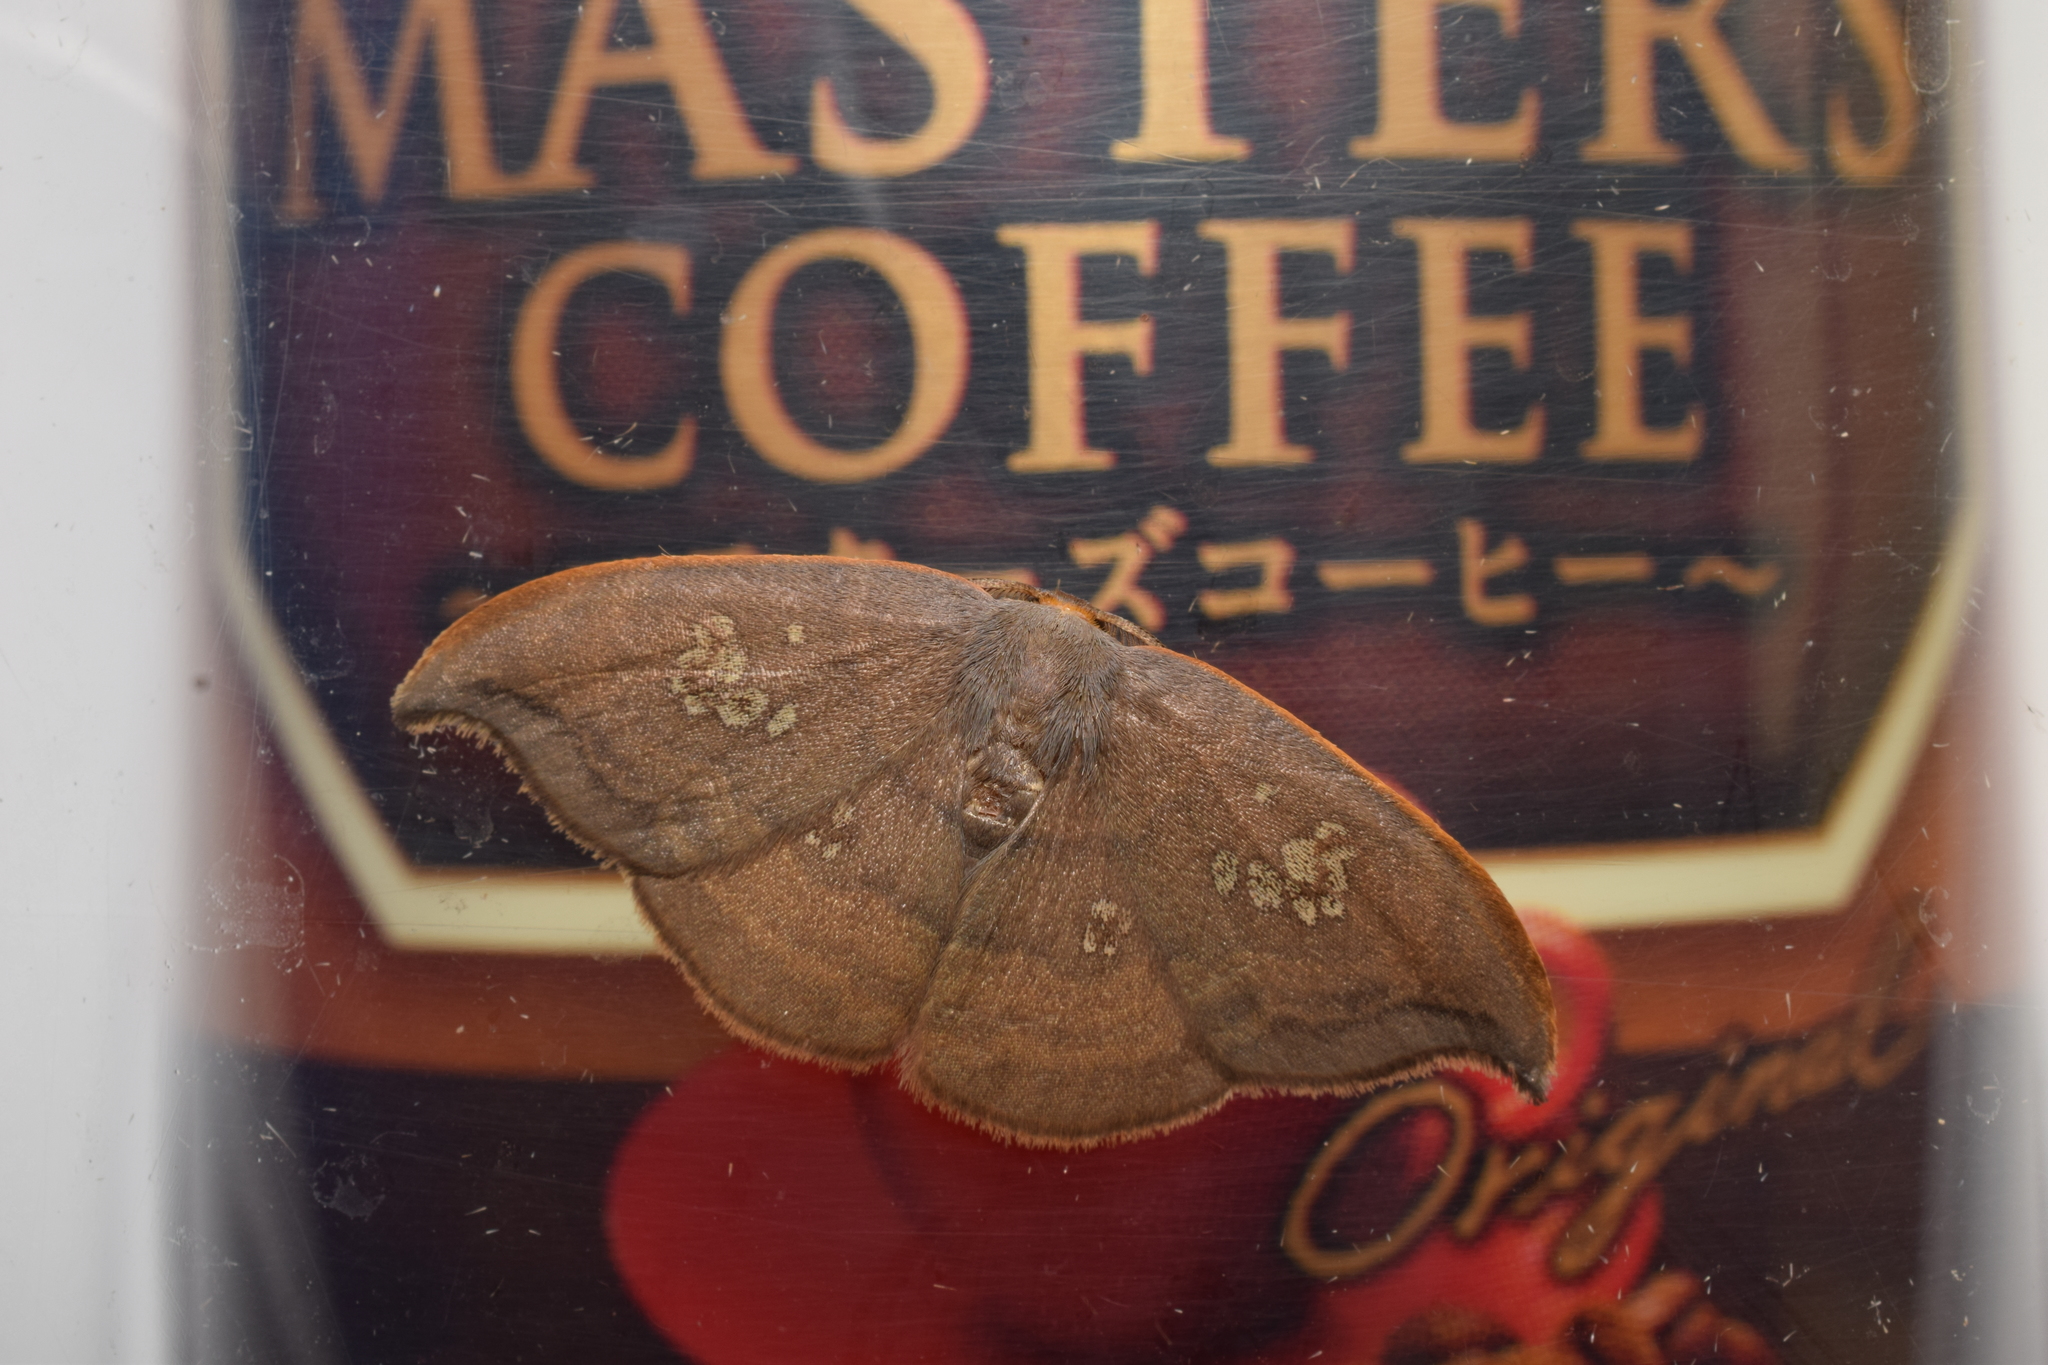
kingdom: Animalia
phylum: Arthropoda
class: Insecta
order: Lepidoptera
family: Drepanidae
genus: Agnidra
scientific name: Agnidra scabiosa
